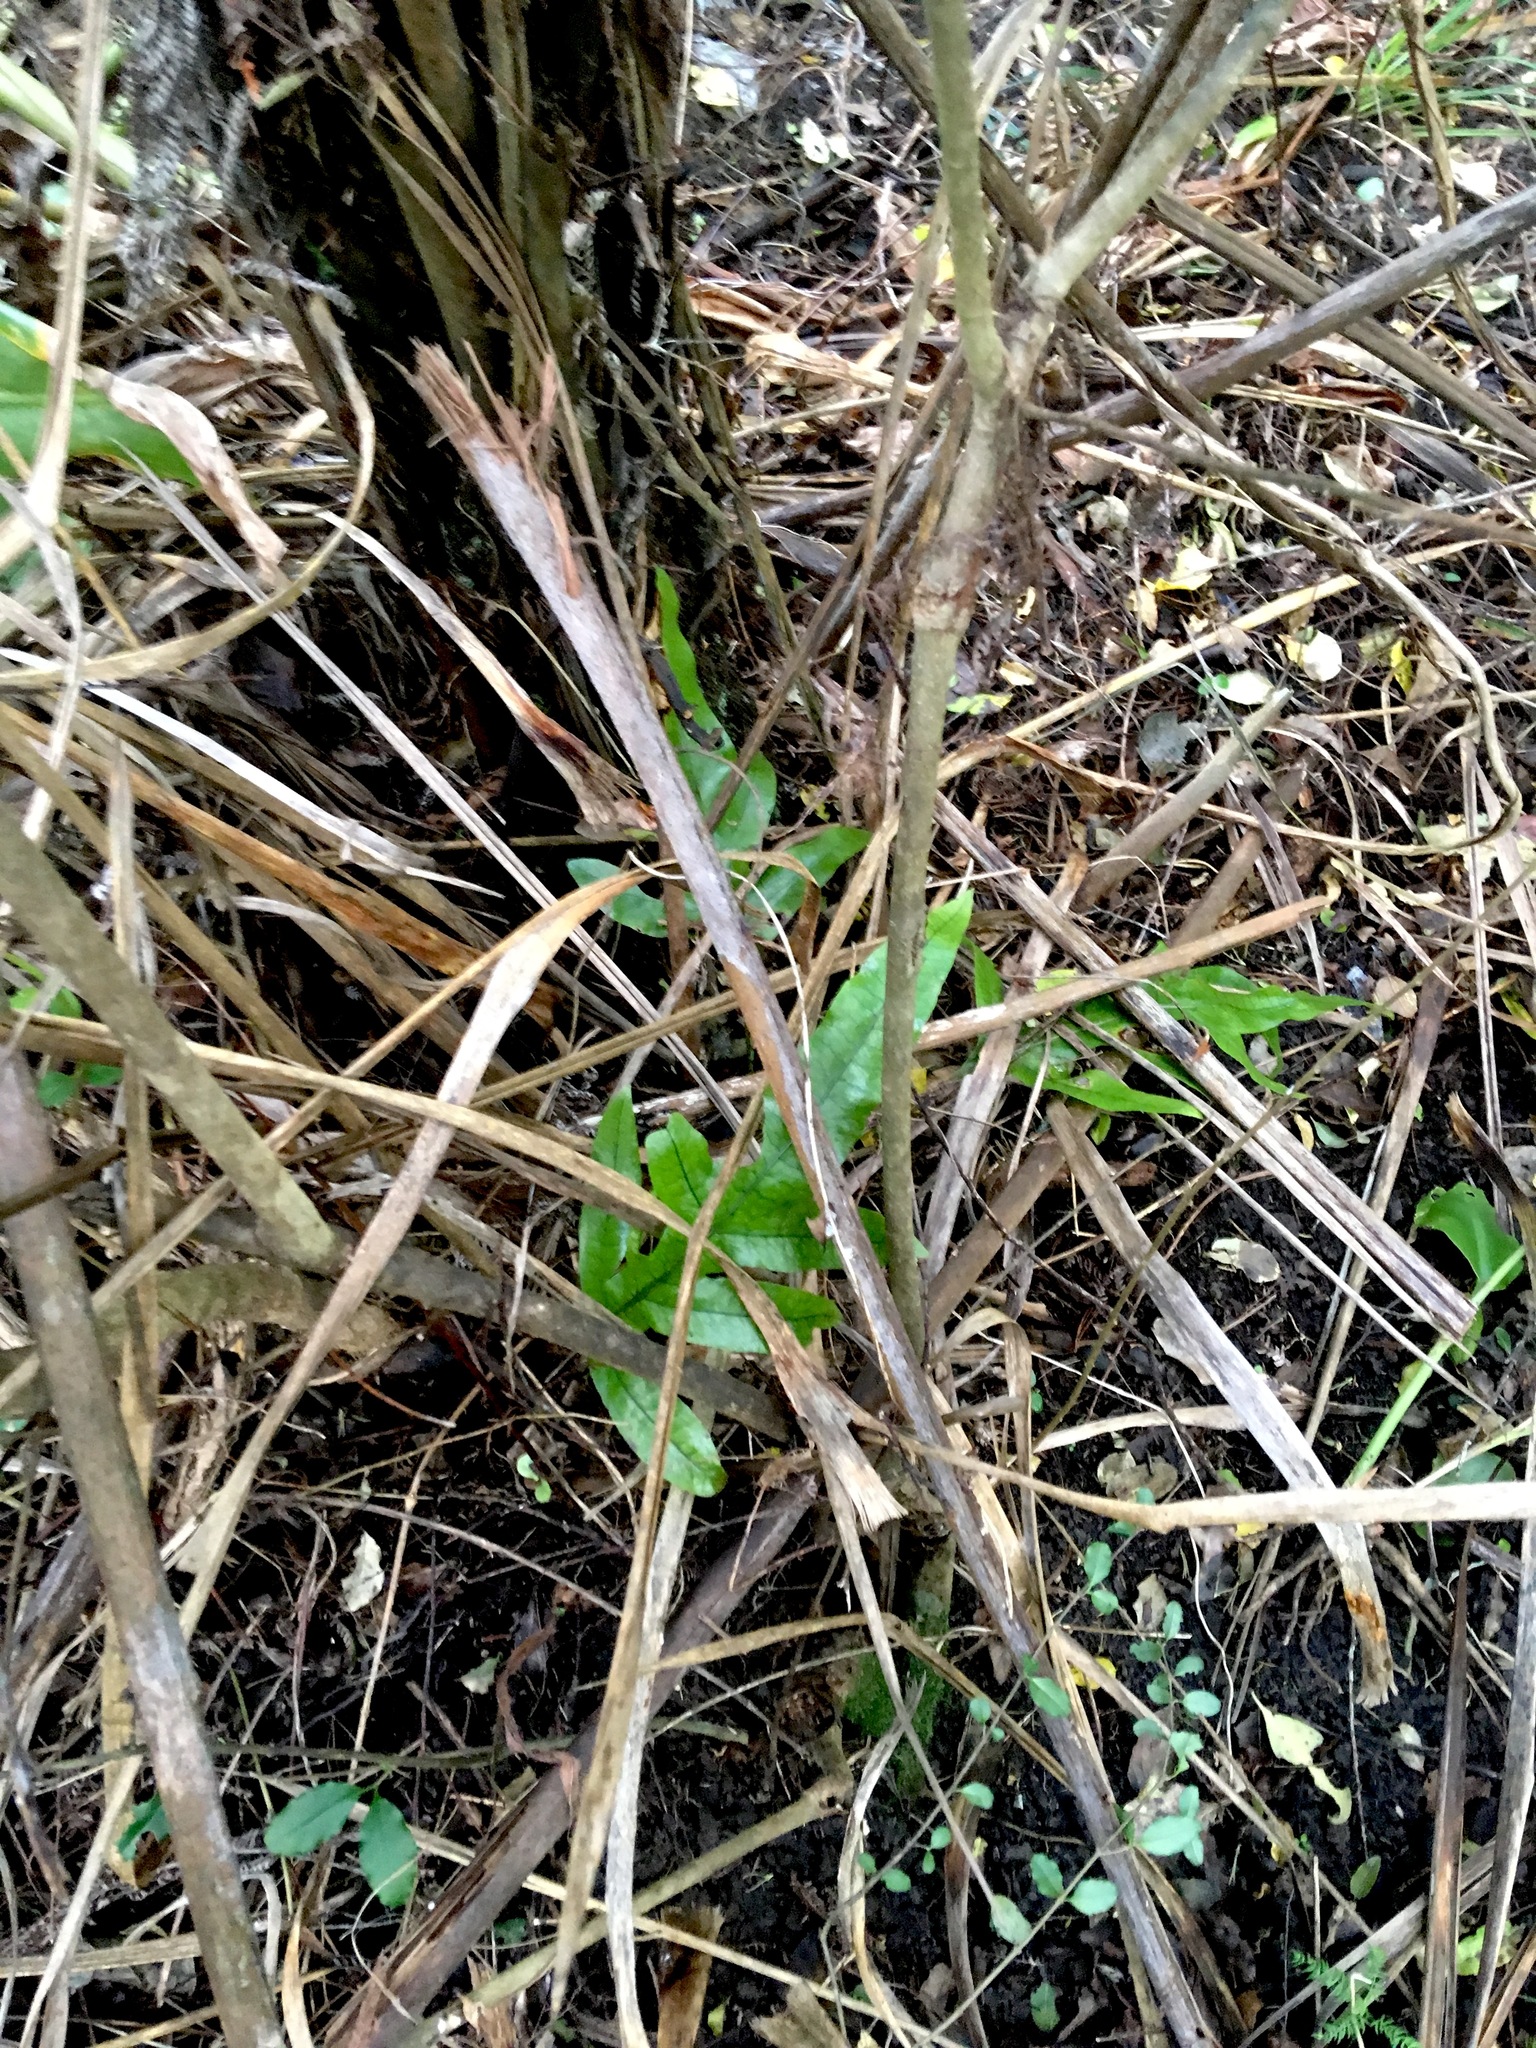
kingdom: Plantae
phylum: Tracheophyta
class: Polypodiopsida
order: Polypodiales
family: Polypodiaceae
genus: Lecanopteris
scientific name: Lecanopteris pustulata
